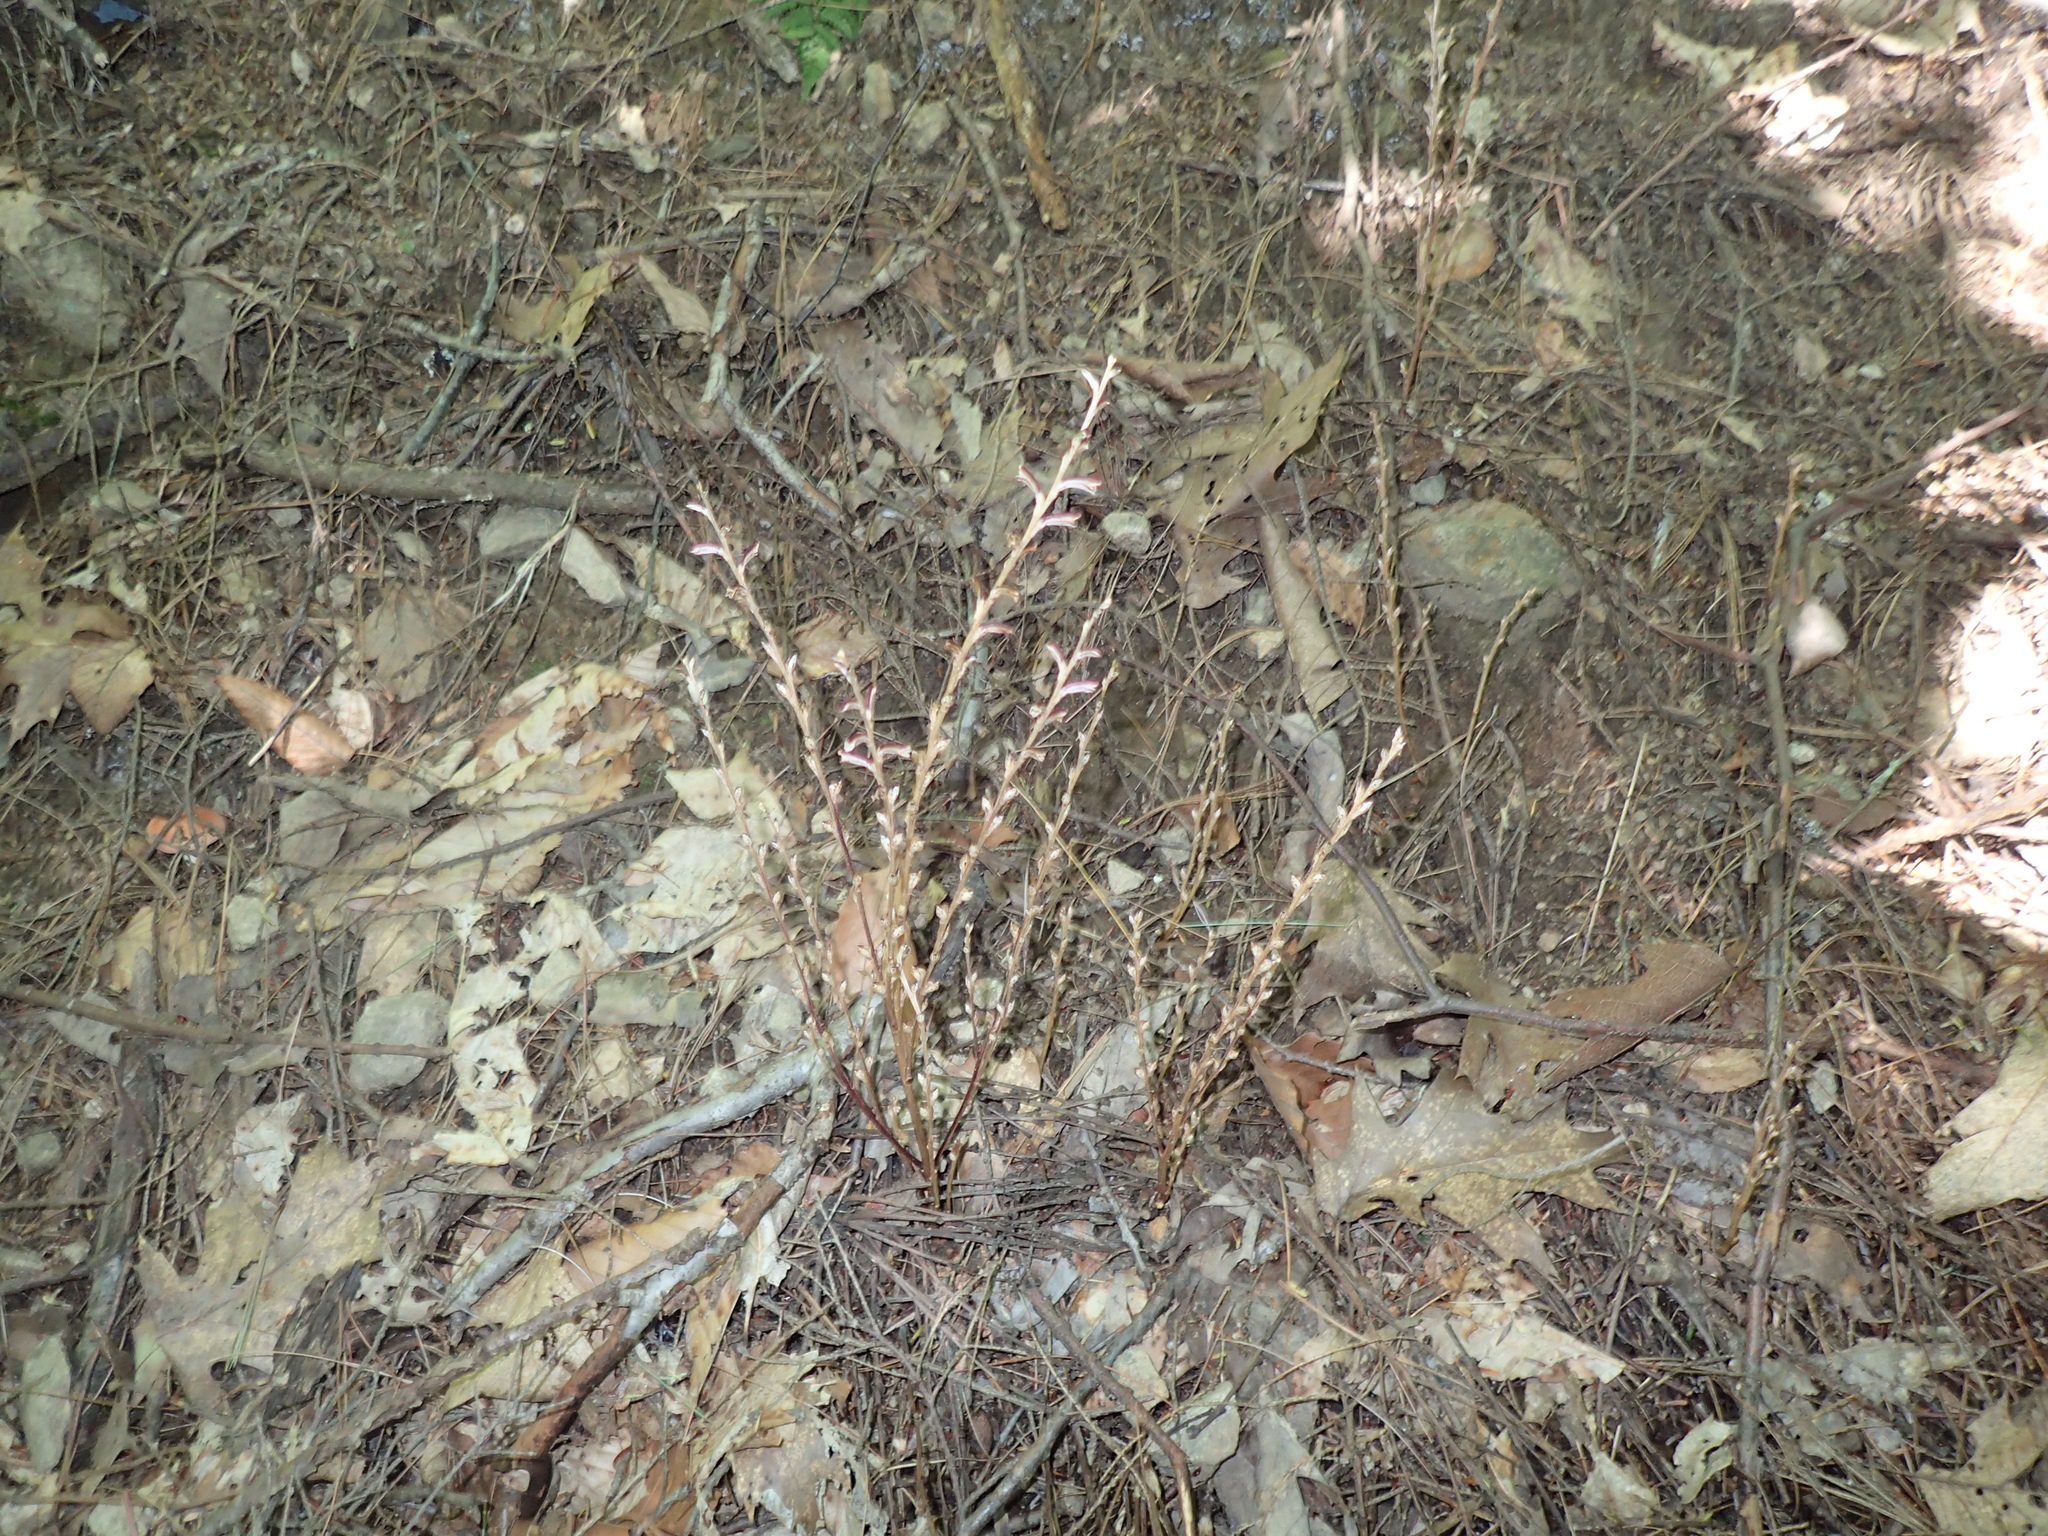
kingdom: Plantae
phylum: Tracheophyta
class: Magnoliopsida
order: Lamiales
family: Orobanchaceae
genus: Epifagus
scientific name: Epifagus virginiana
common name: Beechdrops
